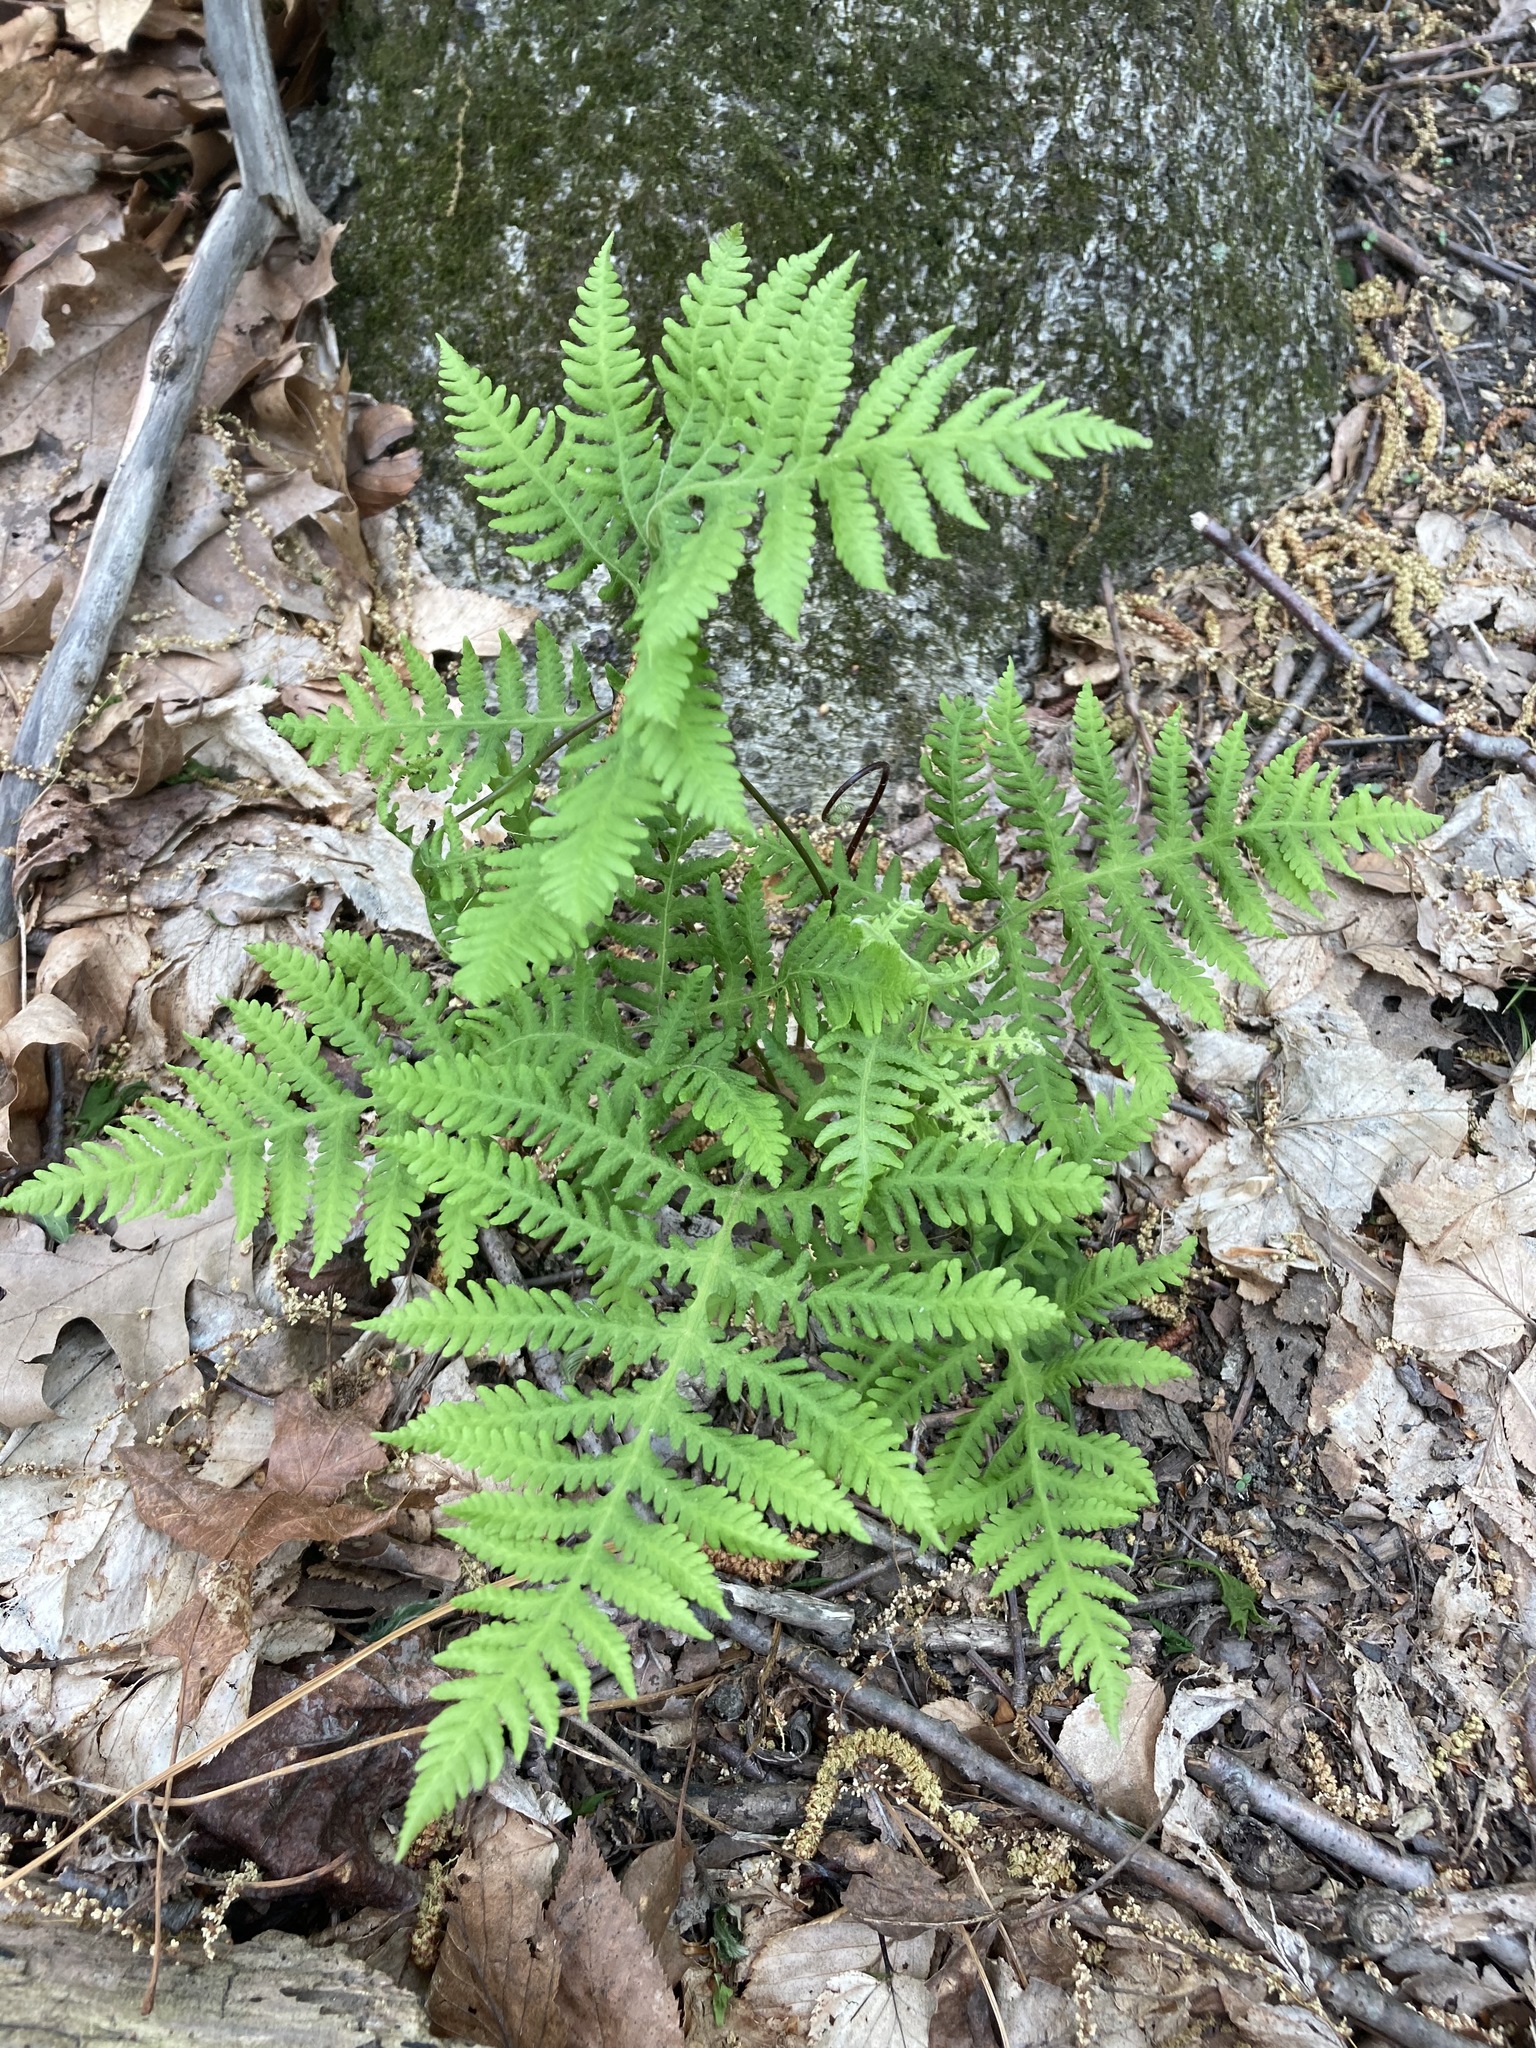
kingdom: Plantae
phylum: Tracheophyta
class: Polypodiopsida
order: Polypodiales
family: Thelypteridaceae
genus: Phegopteris
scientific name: Phegopteris hexagonoptera
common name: Broad beech fern
